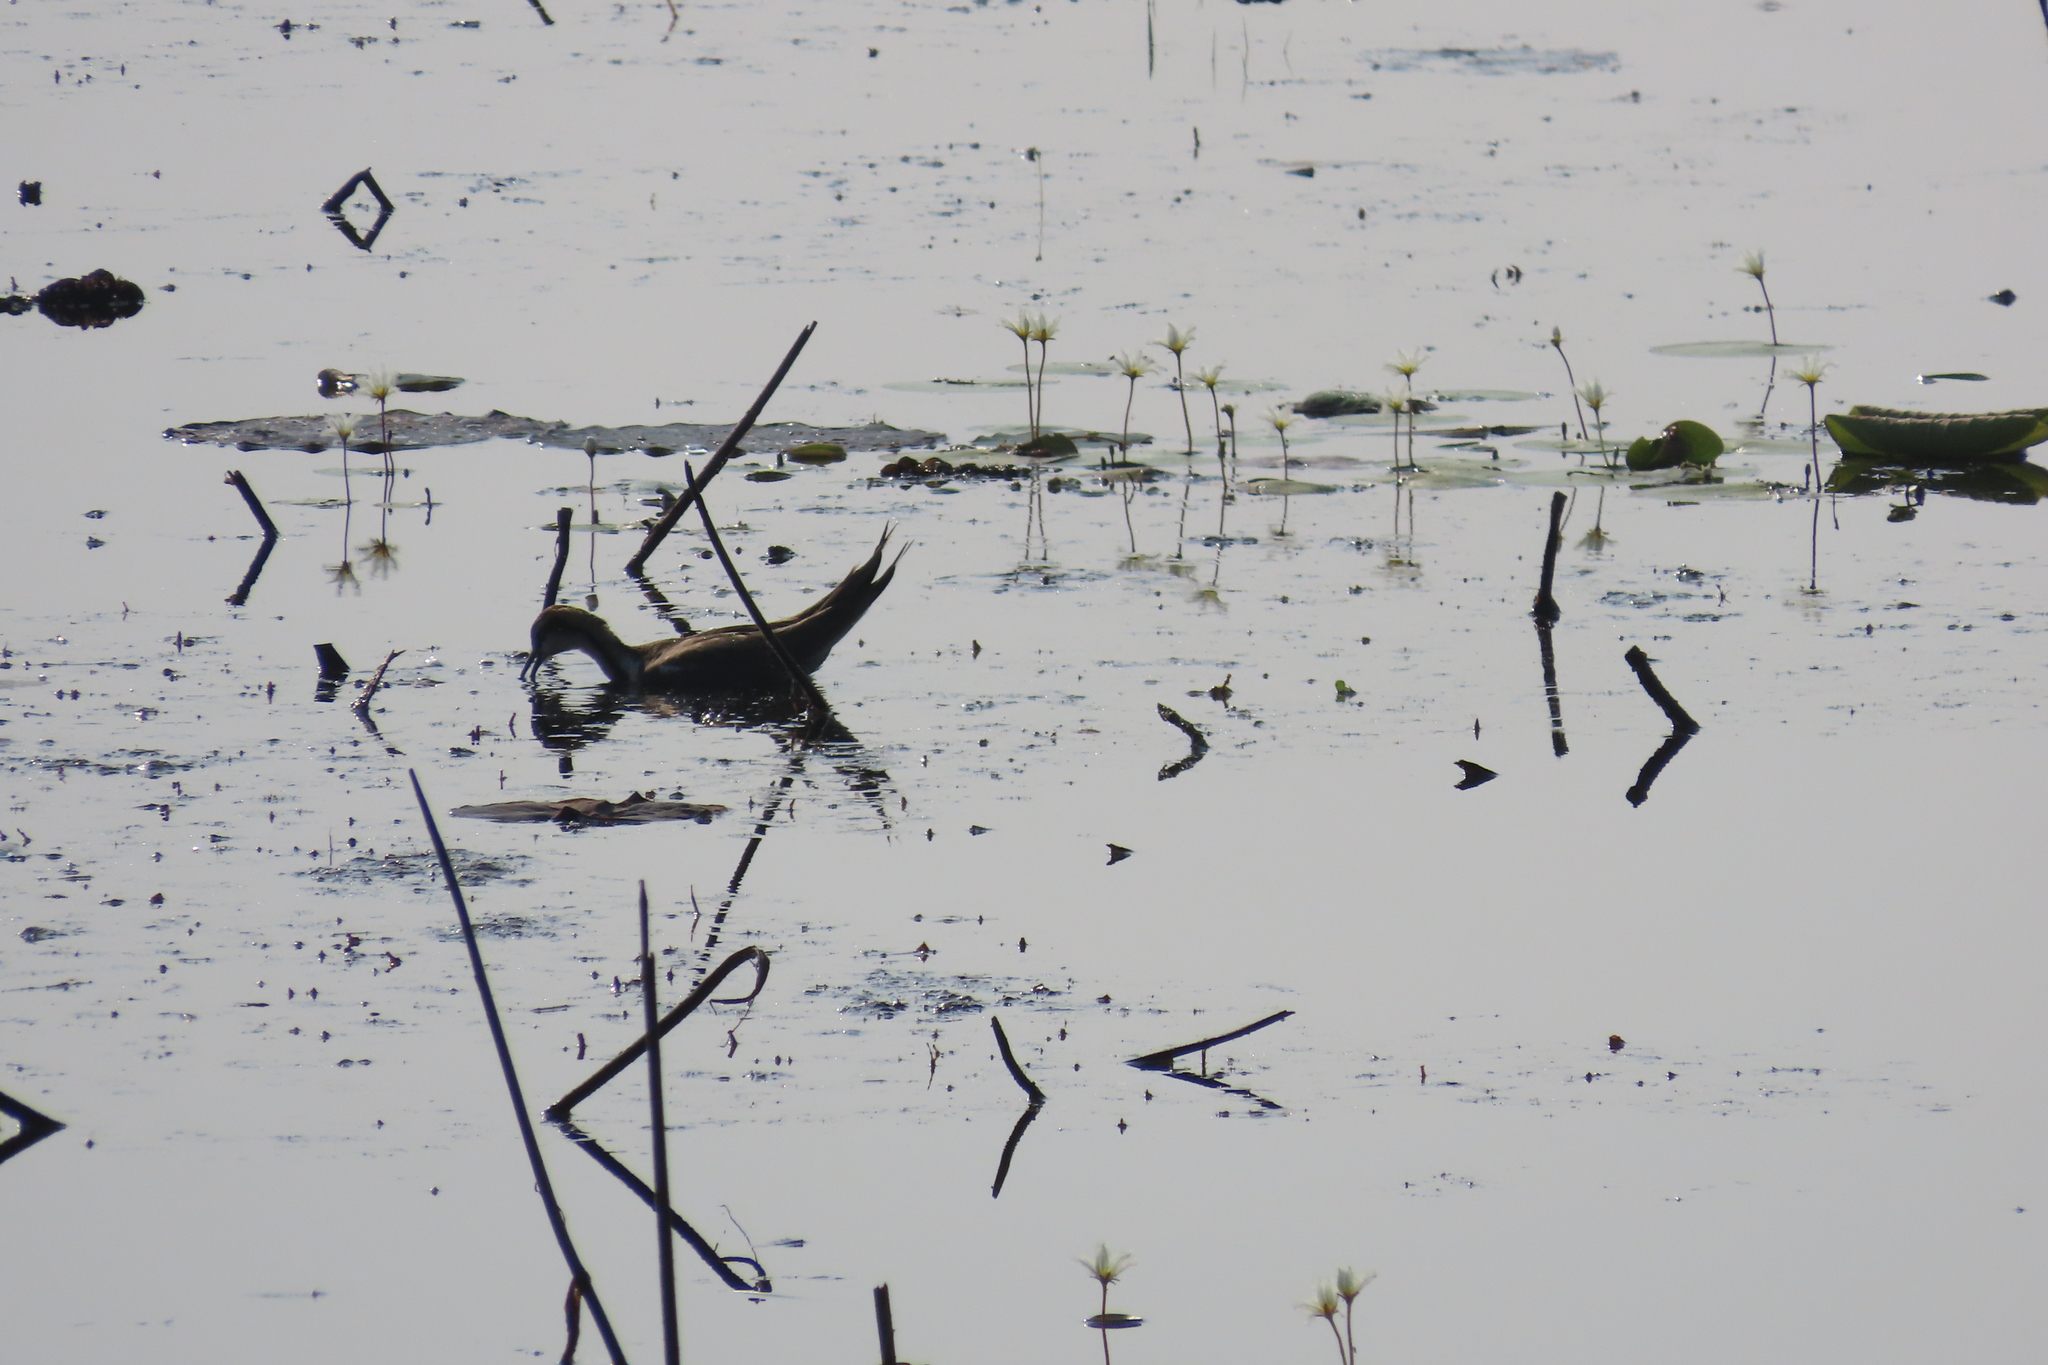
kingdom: Animalia
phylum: Chordata
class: Aves
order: Charadriiformes
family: Jacanidae
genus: Hydrophasianus
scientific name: Hydrophasianus chirurgus
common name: Pheasant-tailed jacana
